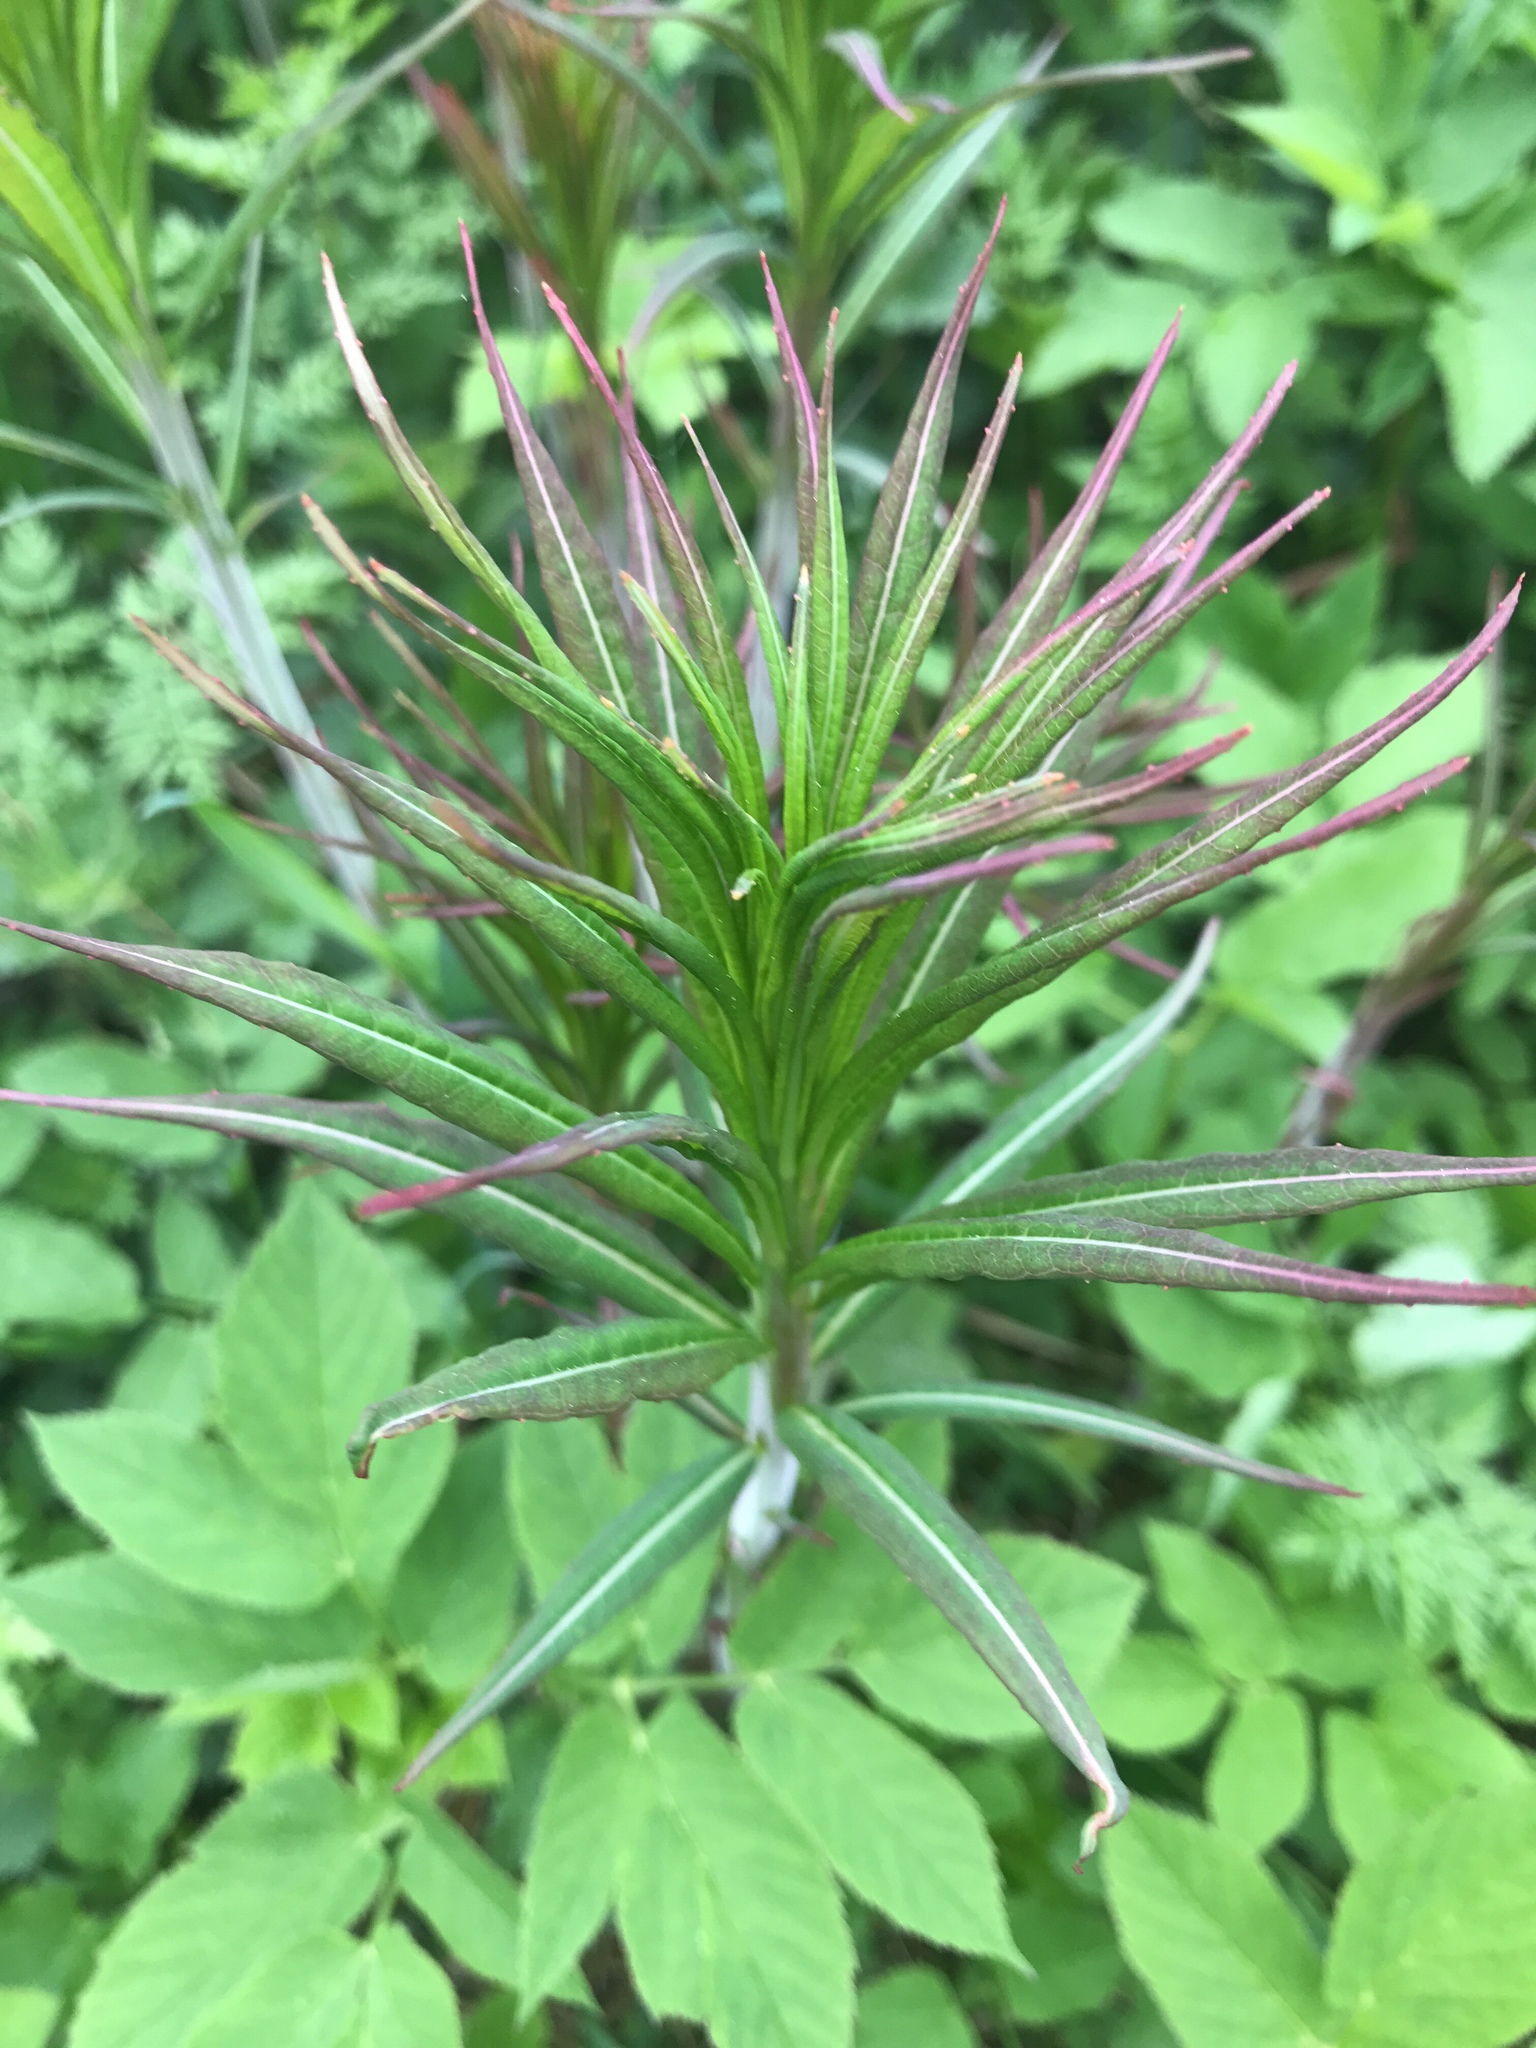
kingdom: Plantae
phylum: Tracheophyta
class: Magnoliopsida
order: Myrtales
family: Onagraceae
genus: Chamaenerion
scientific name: Chamaenerion angustifolium
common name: Fireweed
